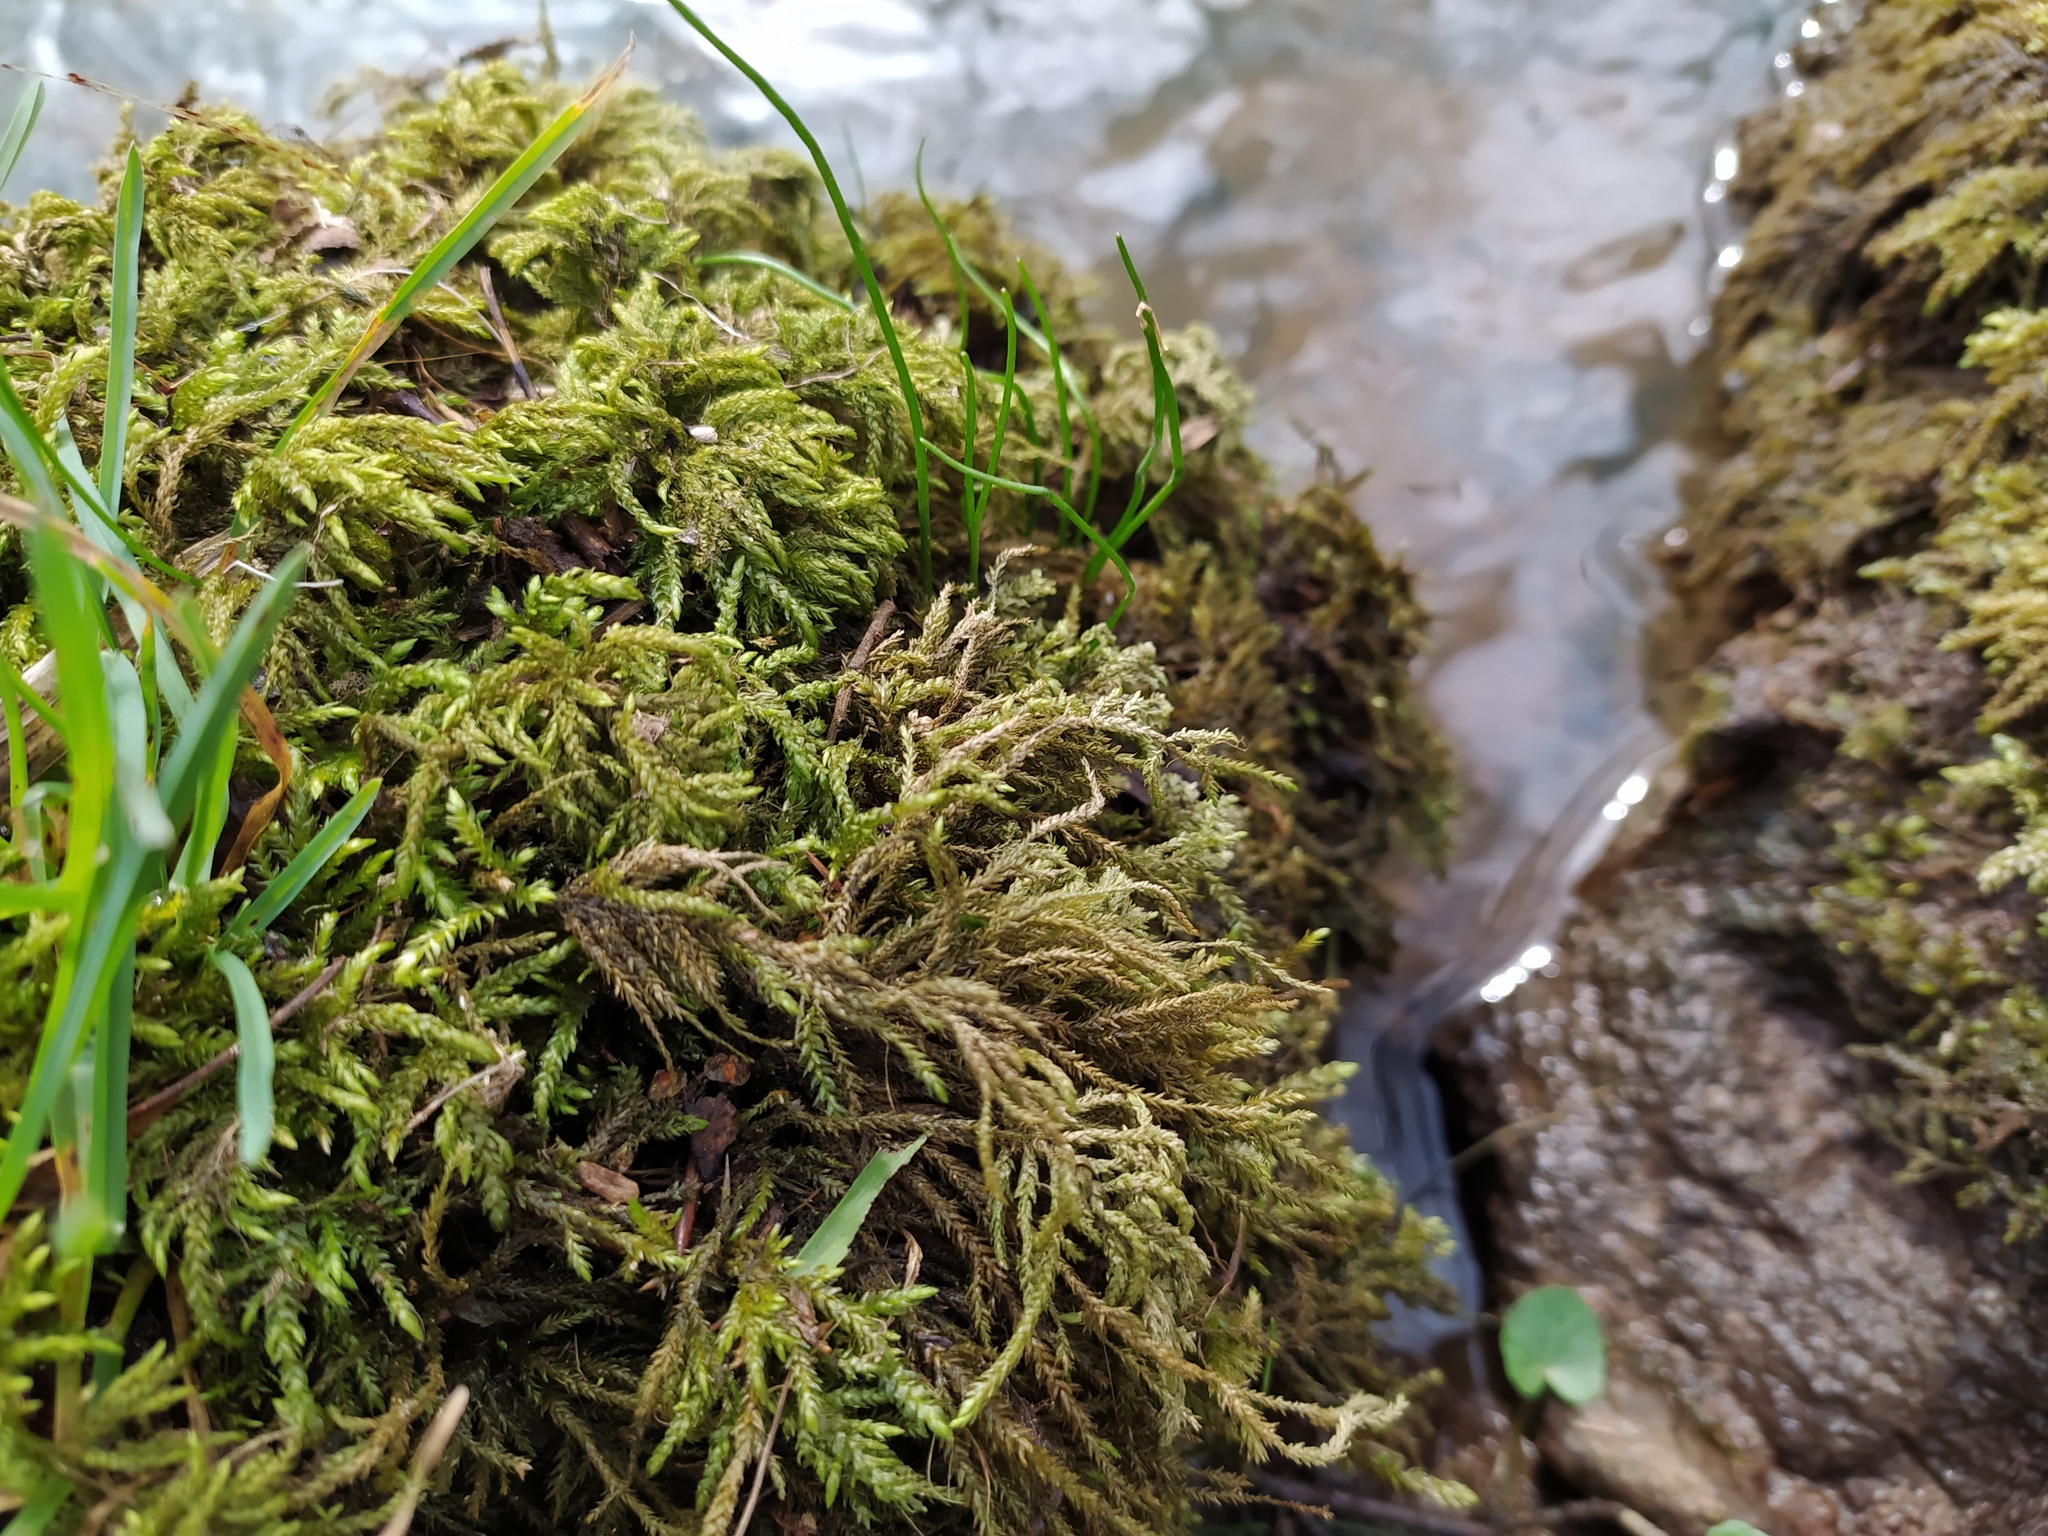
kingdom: Plantae
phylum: Bryophyta
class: Bryopsida
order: Hypnales
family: Neckeraceae
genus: Thamnobryum
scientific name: Thamnobryum alopecurum
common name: Fox-tail feather-moss
